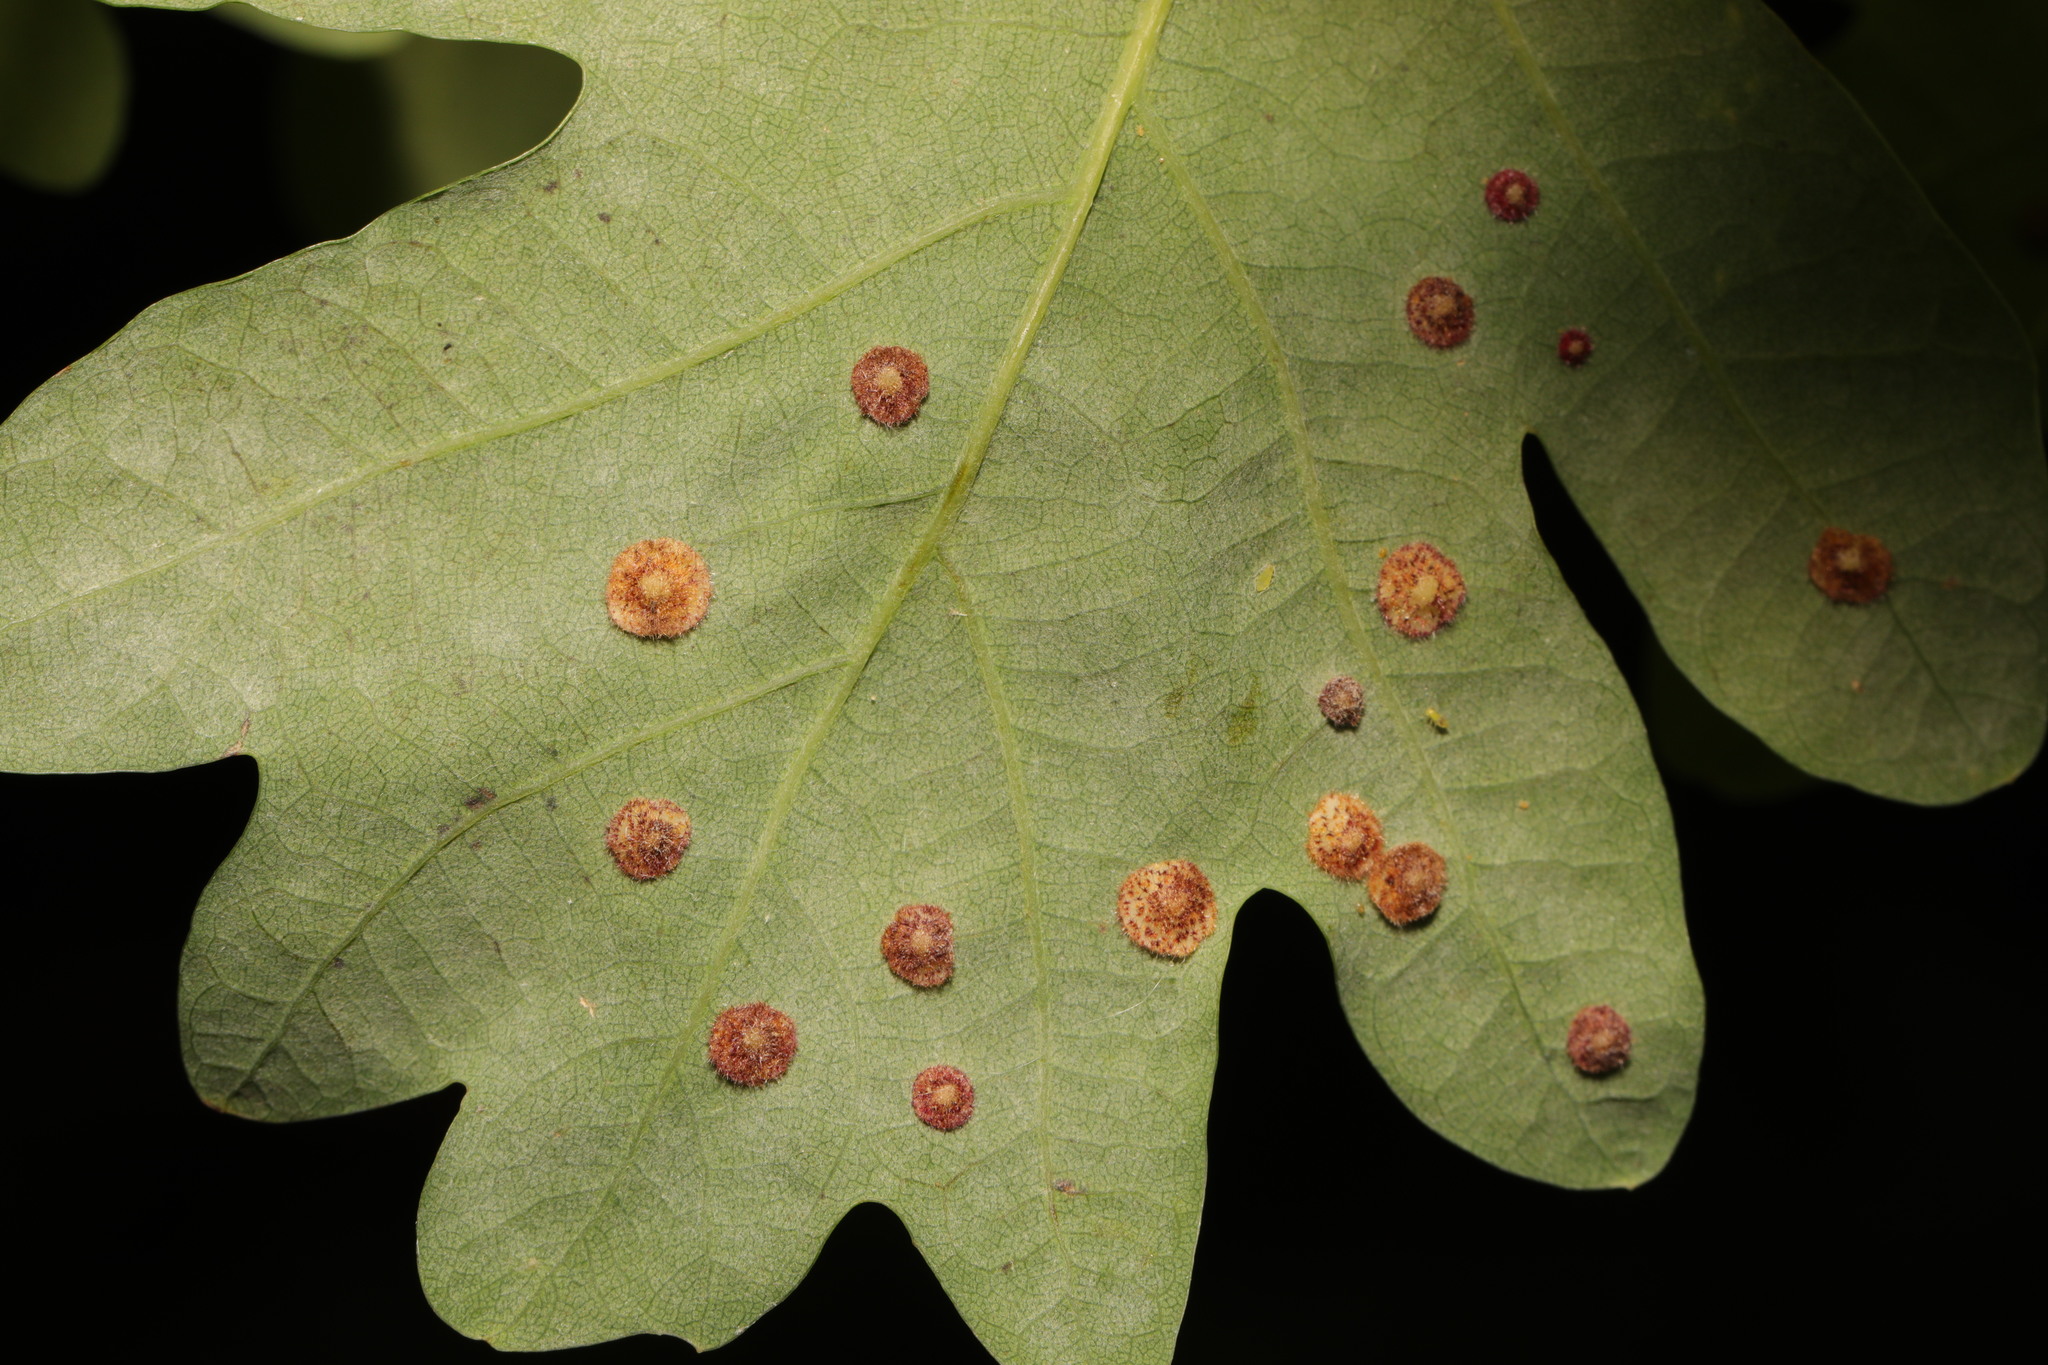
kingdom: Animalia
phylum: Arthropoda
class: Insecta
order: Hymenoptera
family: Cynipidae
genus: Neuroterus
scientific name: Neuroterus quercusbaccarum
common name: Common spangle gall
